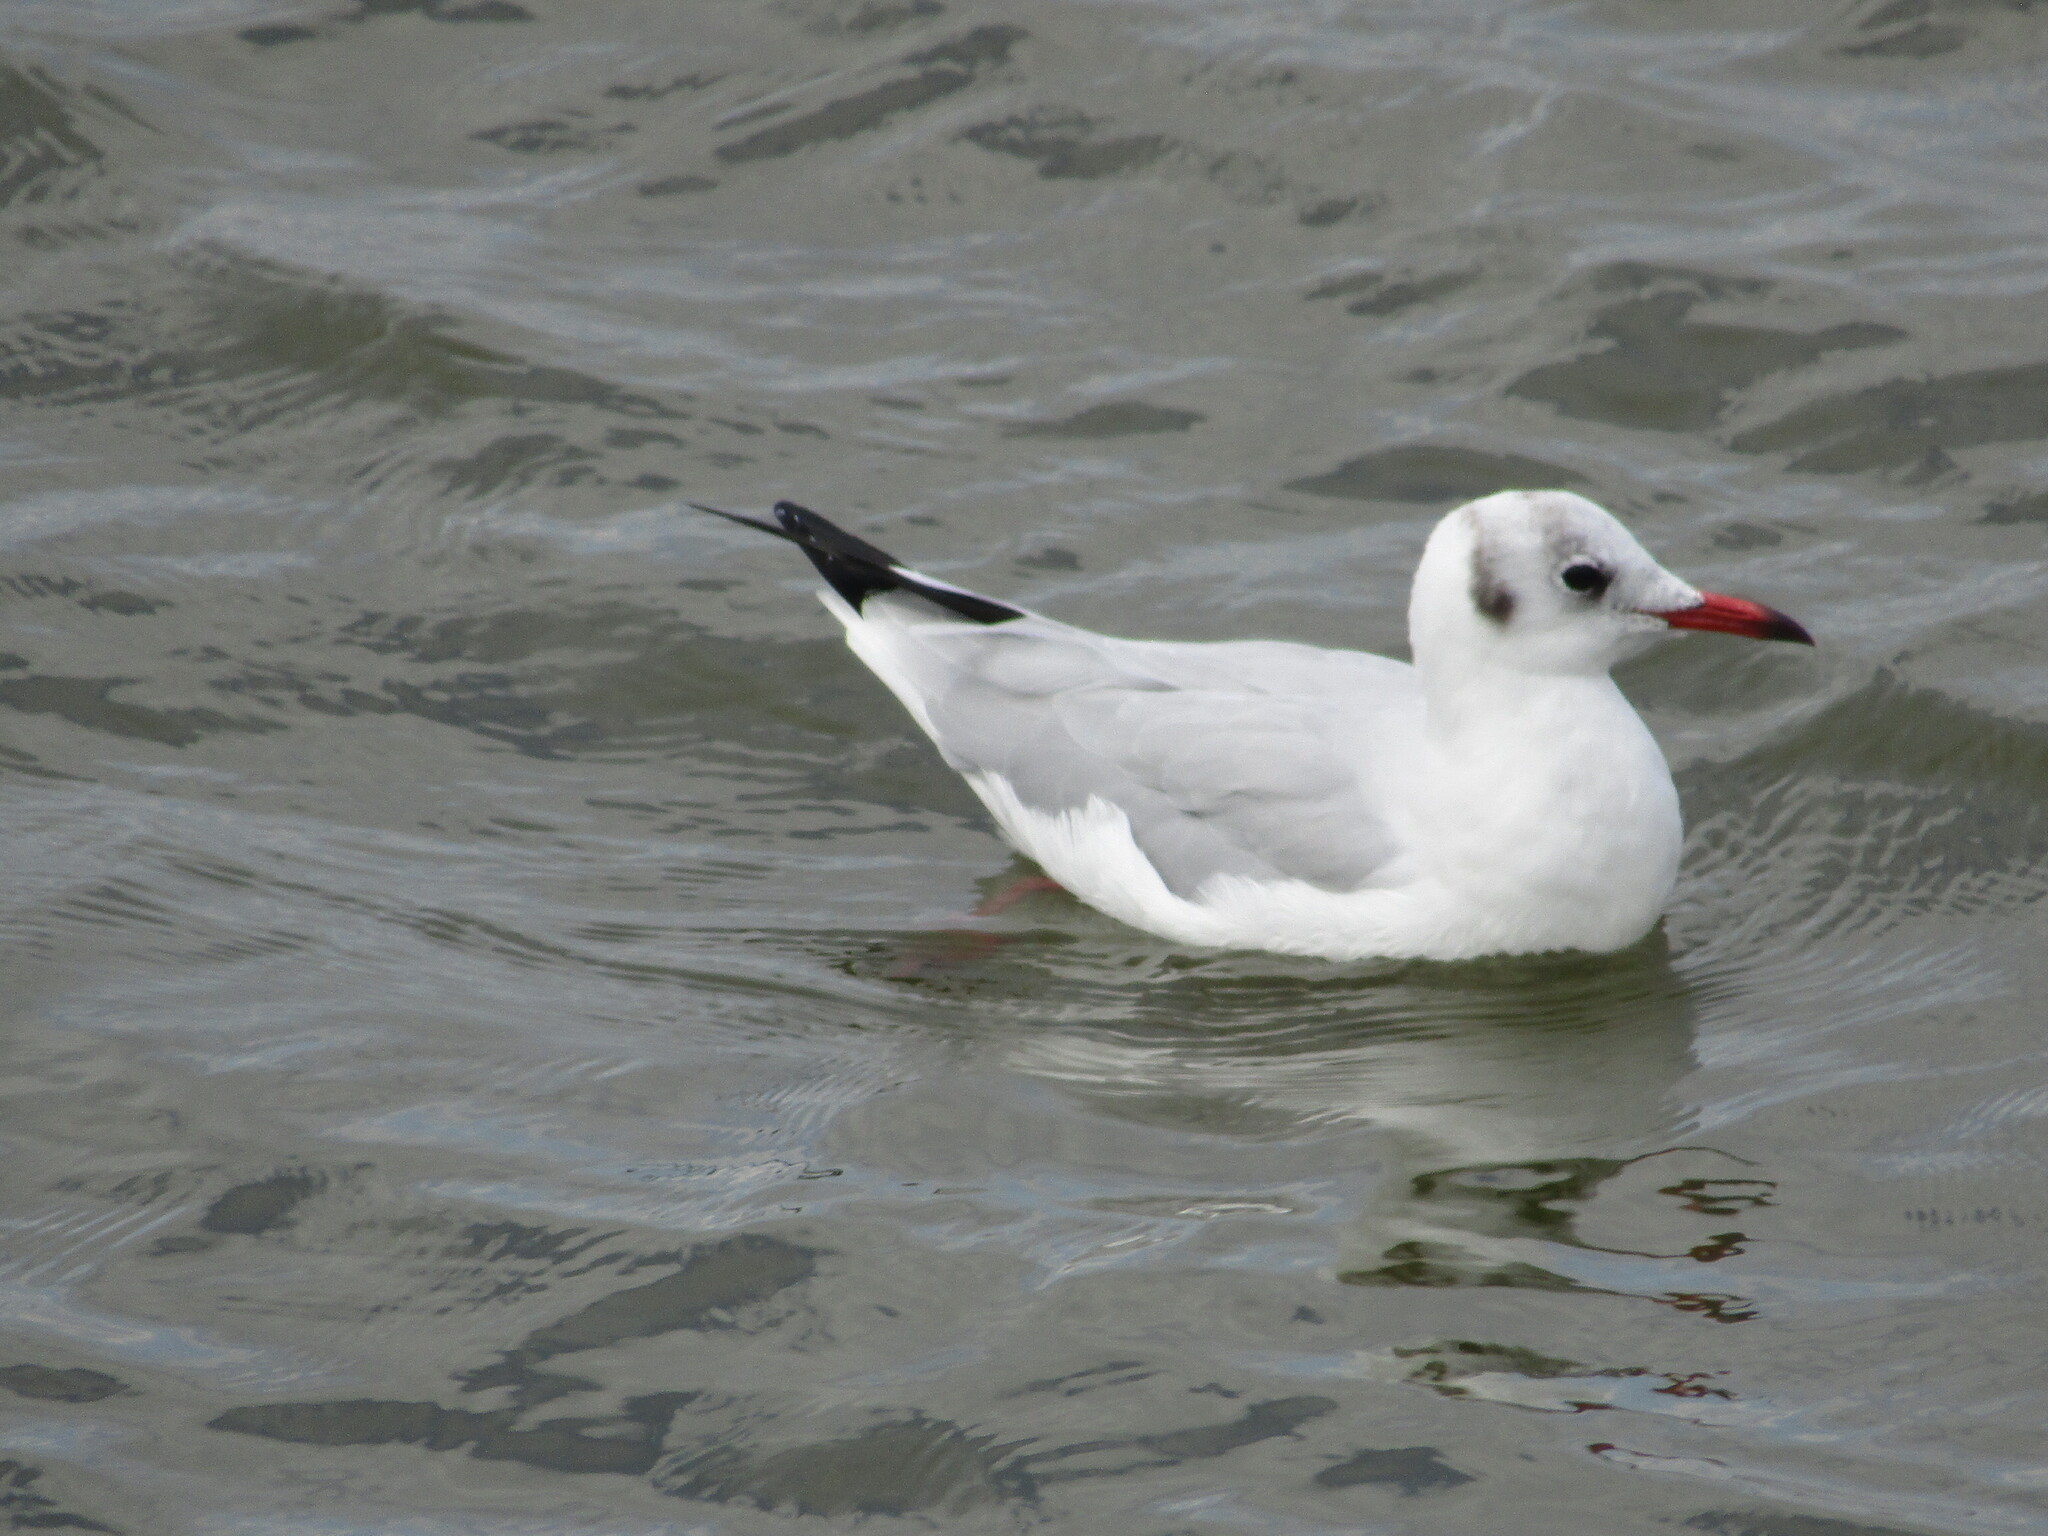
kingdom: Animalia
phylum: Chordata
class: Aves
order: Charadriiformes
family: Laridae
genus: Chroicocephalus
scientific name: Chroicocephalus ridibundus
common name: Black-headed gull
